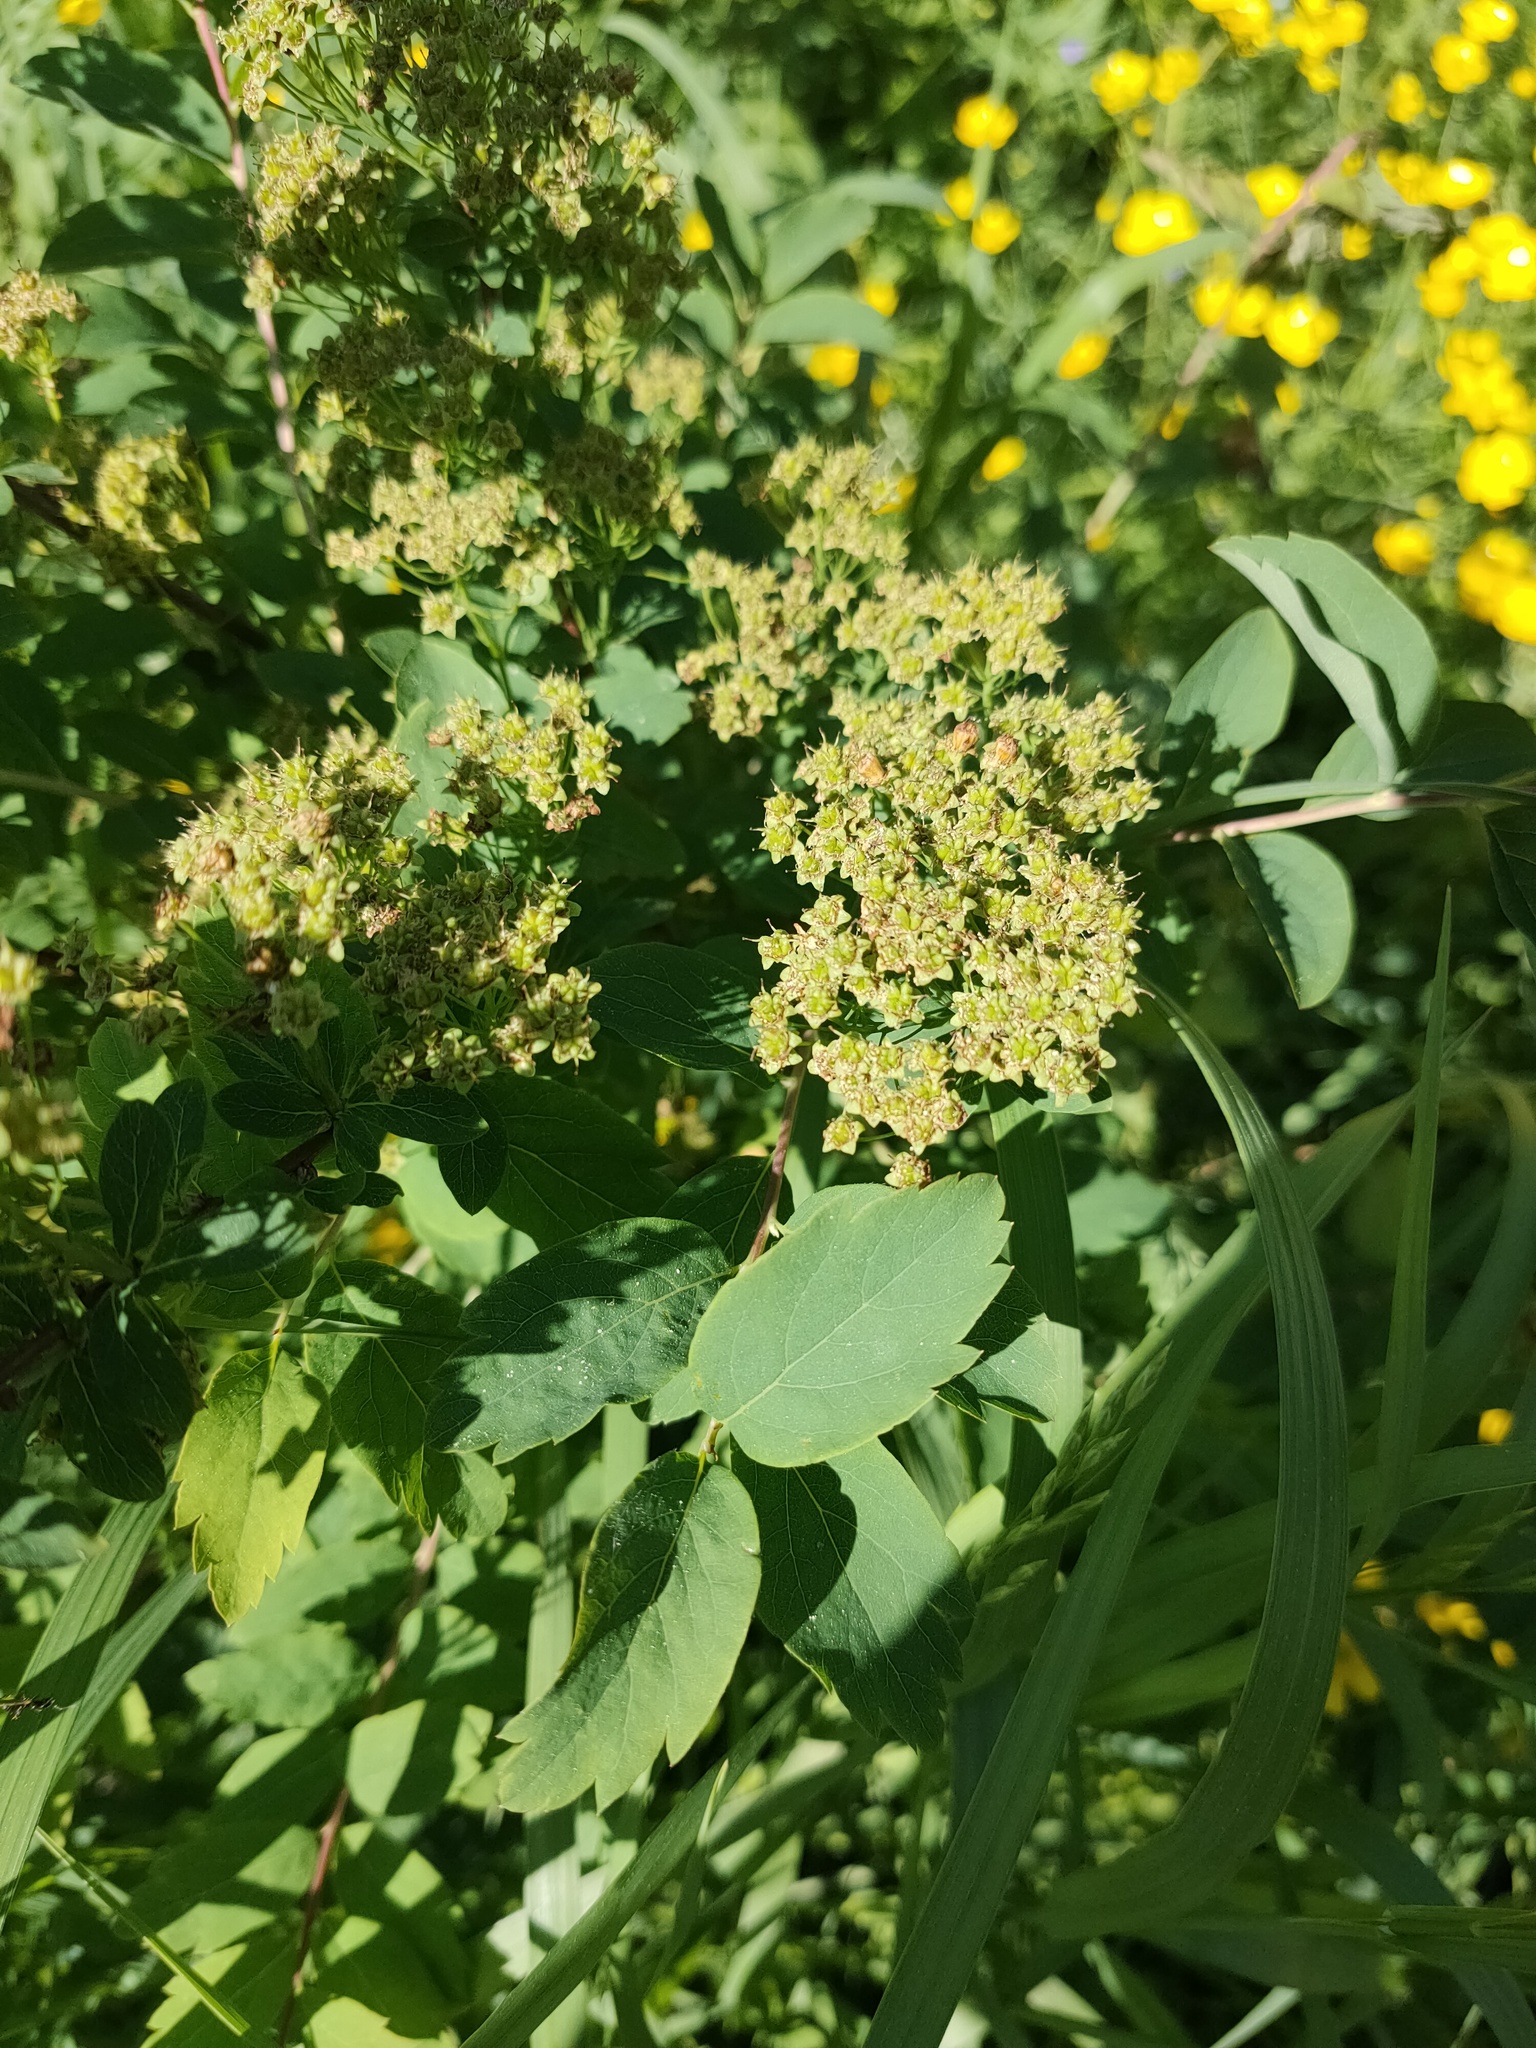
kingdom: Plantae
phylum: Tracheophyta
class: Magnoliopsida
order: Rosales
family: Rosaceae
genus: Spiraea
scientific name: Spiraea media
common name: Russian spiraea
